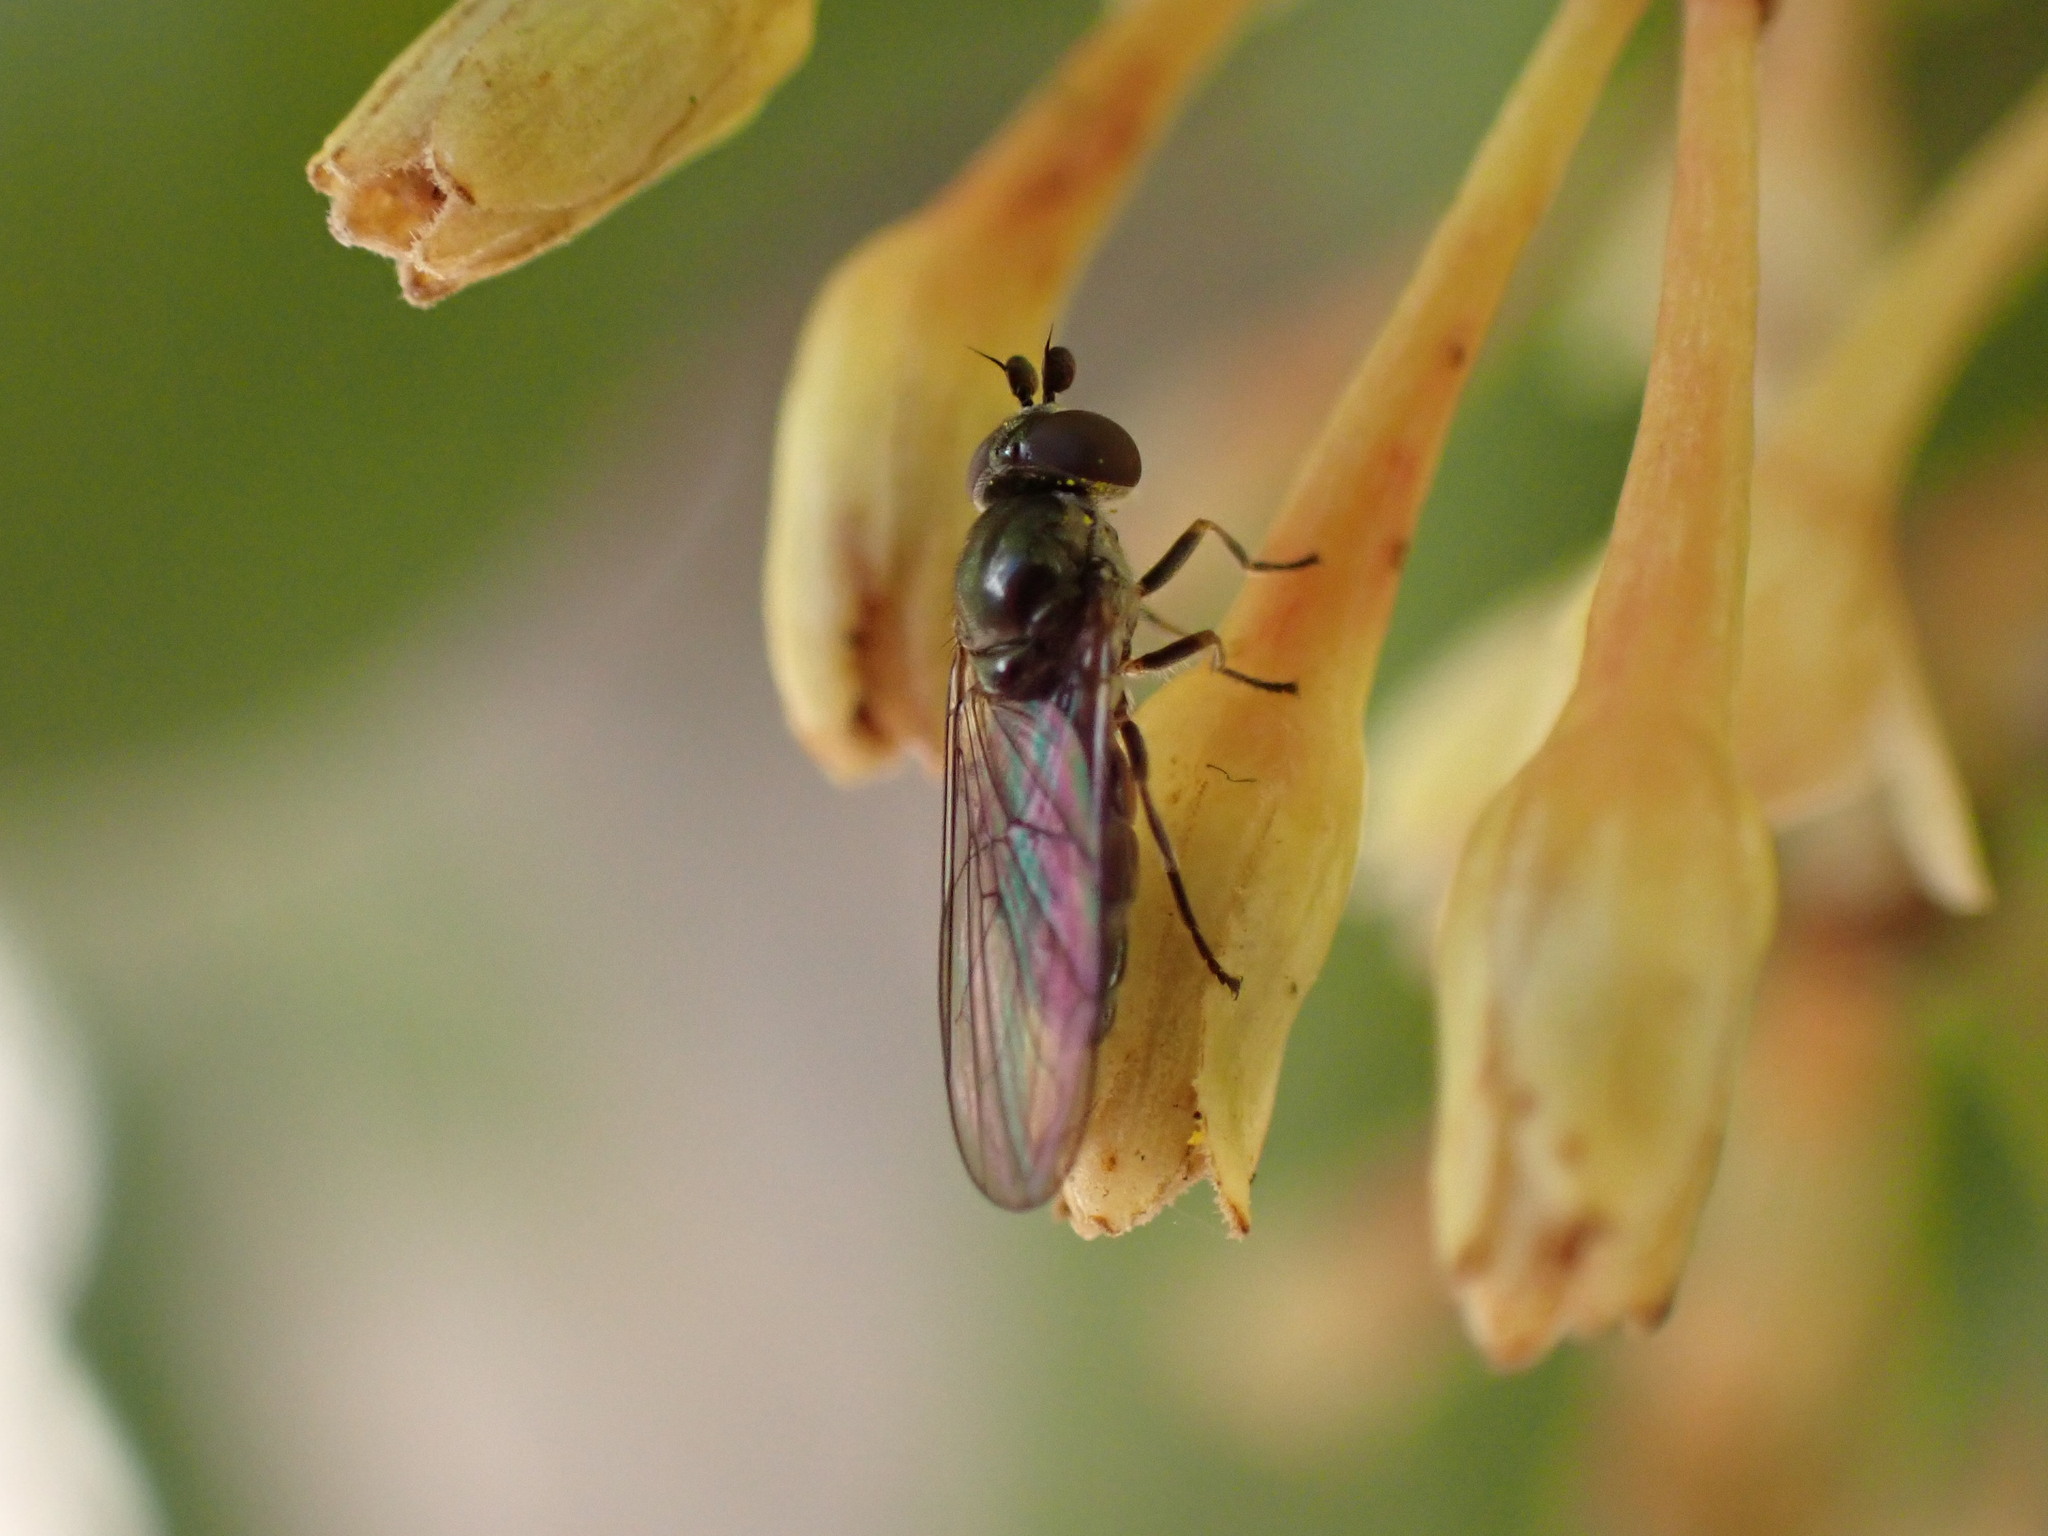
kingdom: Animalia
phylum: Arthropoda
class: Insecta
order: Diptera
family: Syrphidae
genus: Chamaesyrphus
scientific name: Chamaesyrphus nigrifacies
